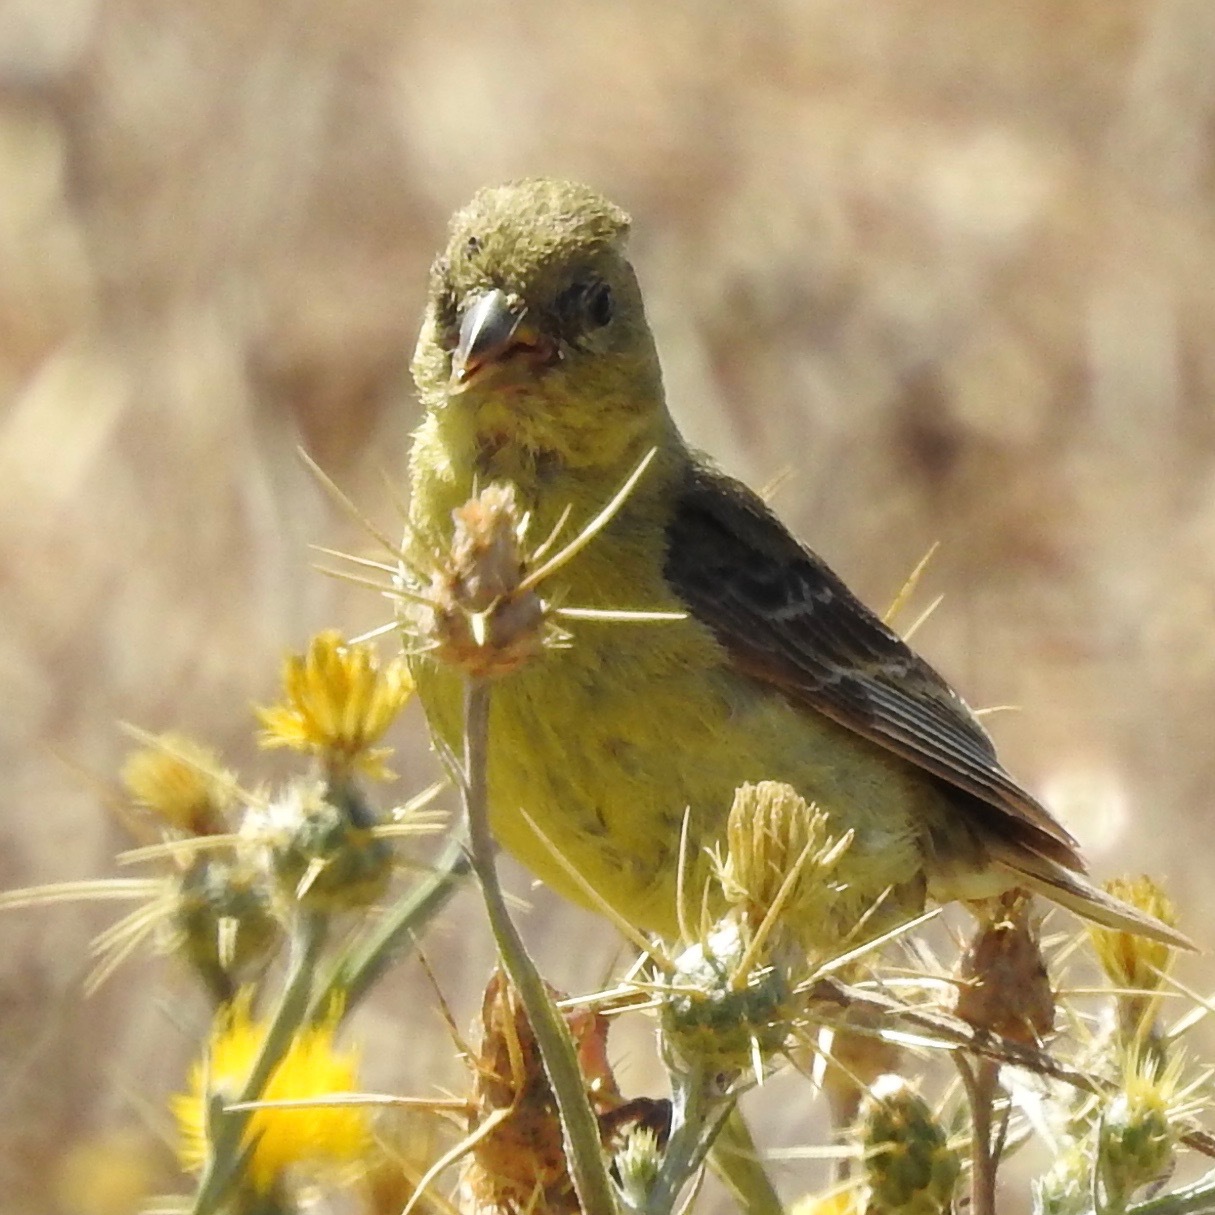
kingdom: Animalia
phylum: Chordata
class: Aves
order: Passeriformes
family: Fringillidae
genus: Spinus
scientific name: Spinus psaltria
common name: Lesser goldfinch
